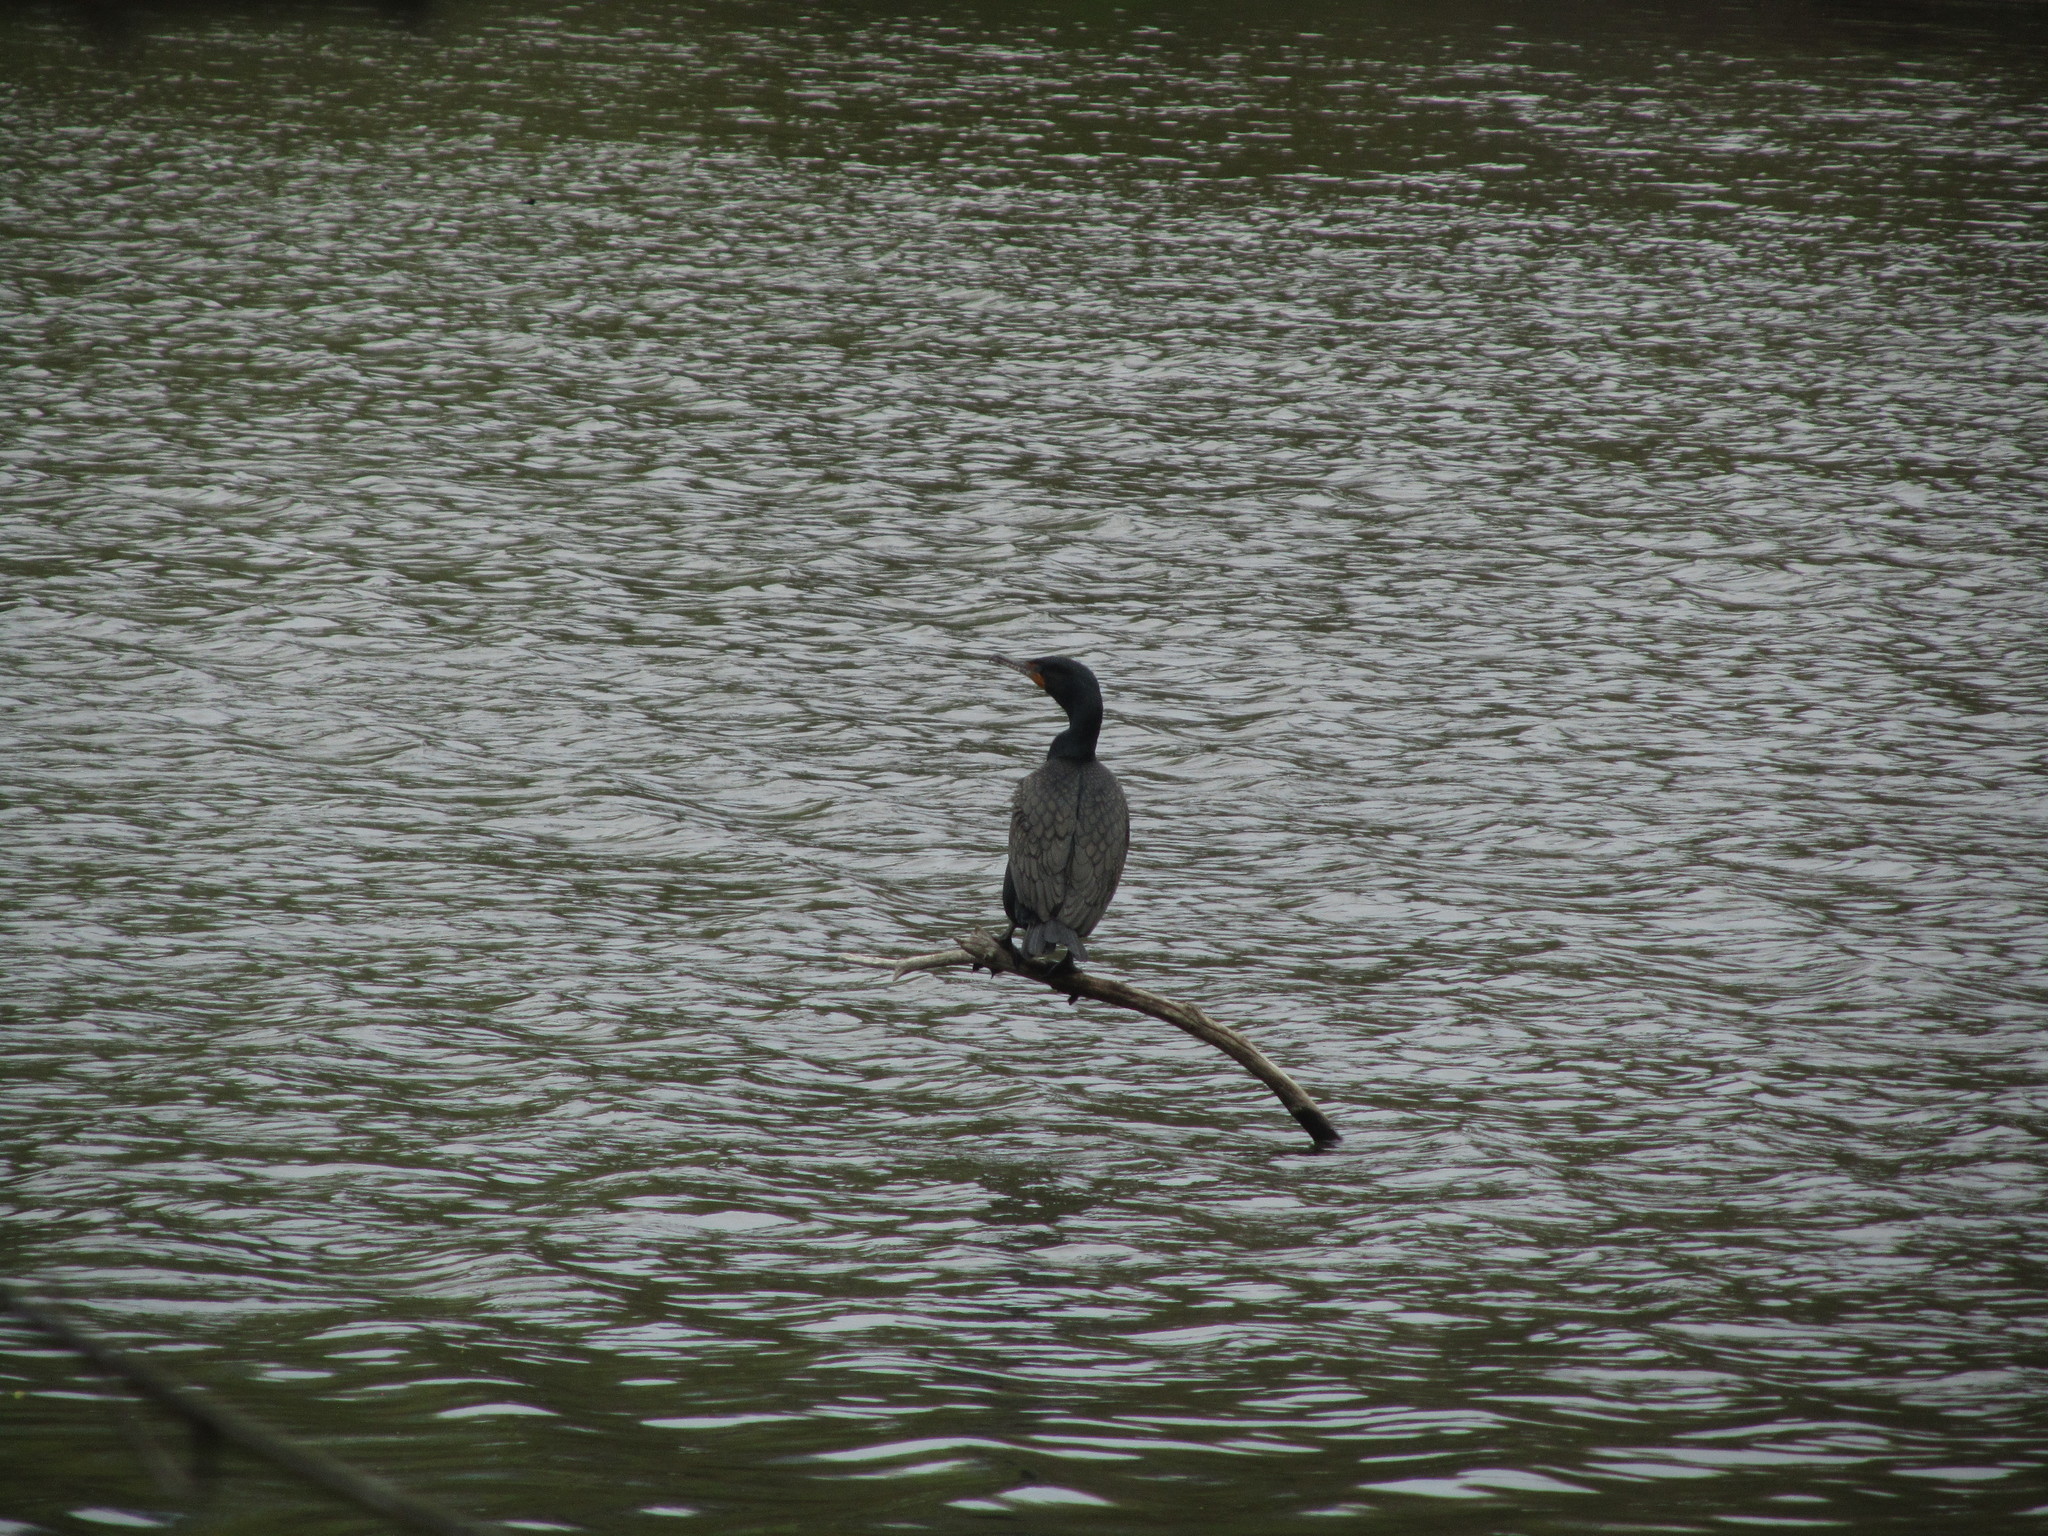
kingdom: Animalia
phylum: Chordata
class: Aves
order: Suliformes
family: Phalacrocoracidae
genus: Phalacrocorax
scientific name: Phalacrocorax auritus
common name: Double-crested cormorant
